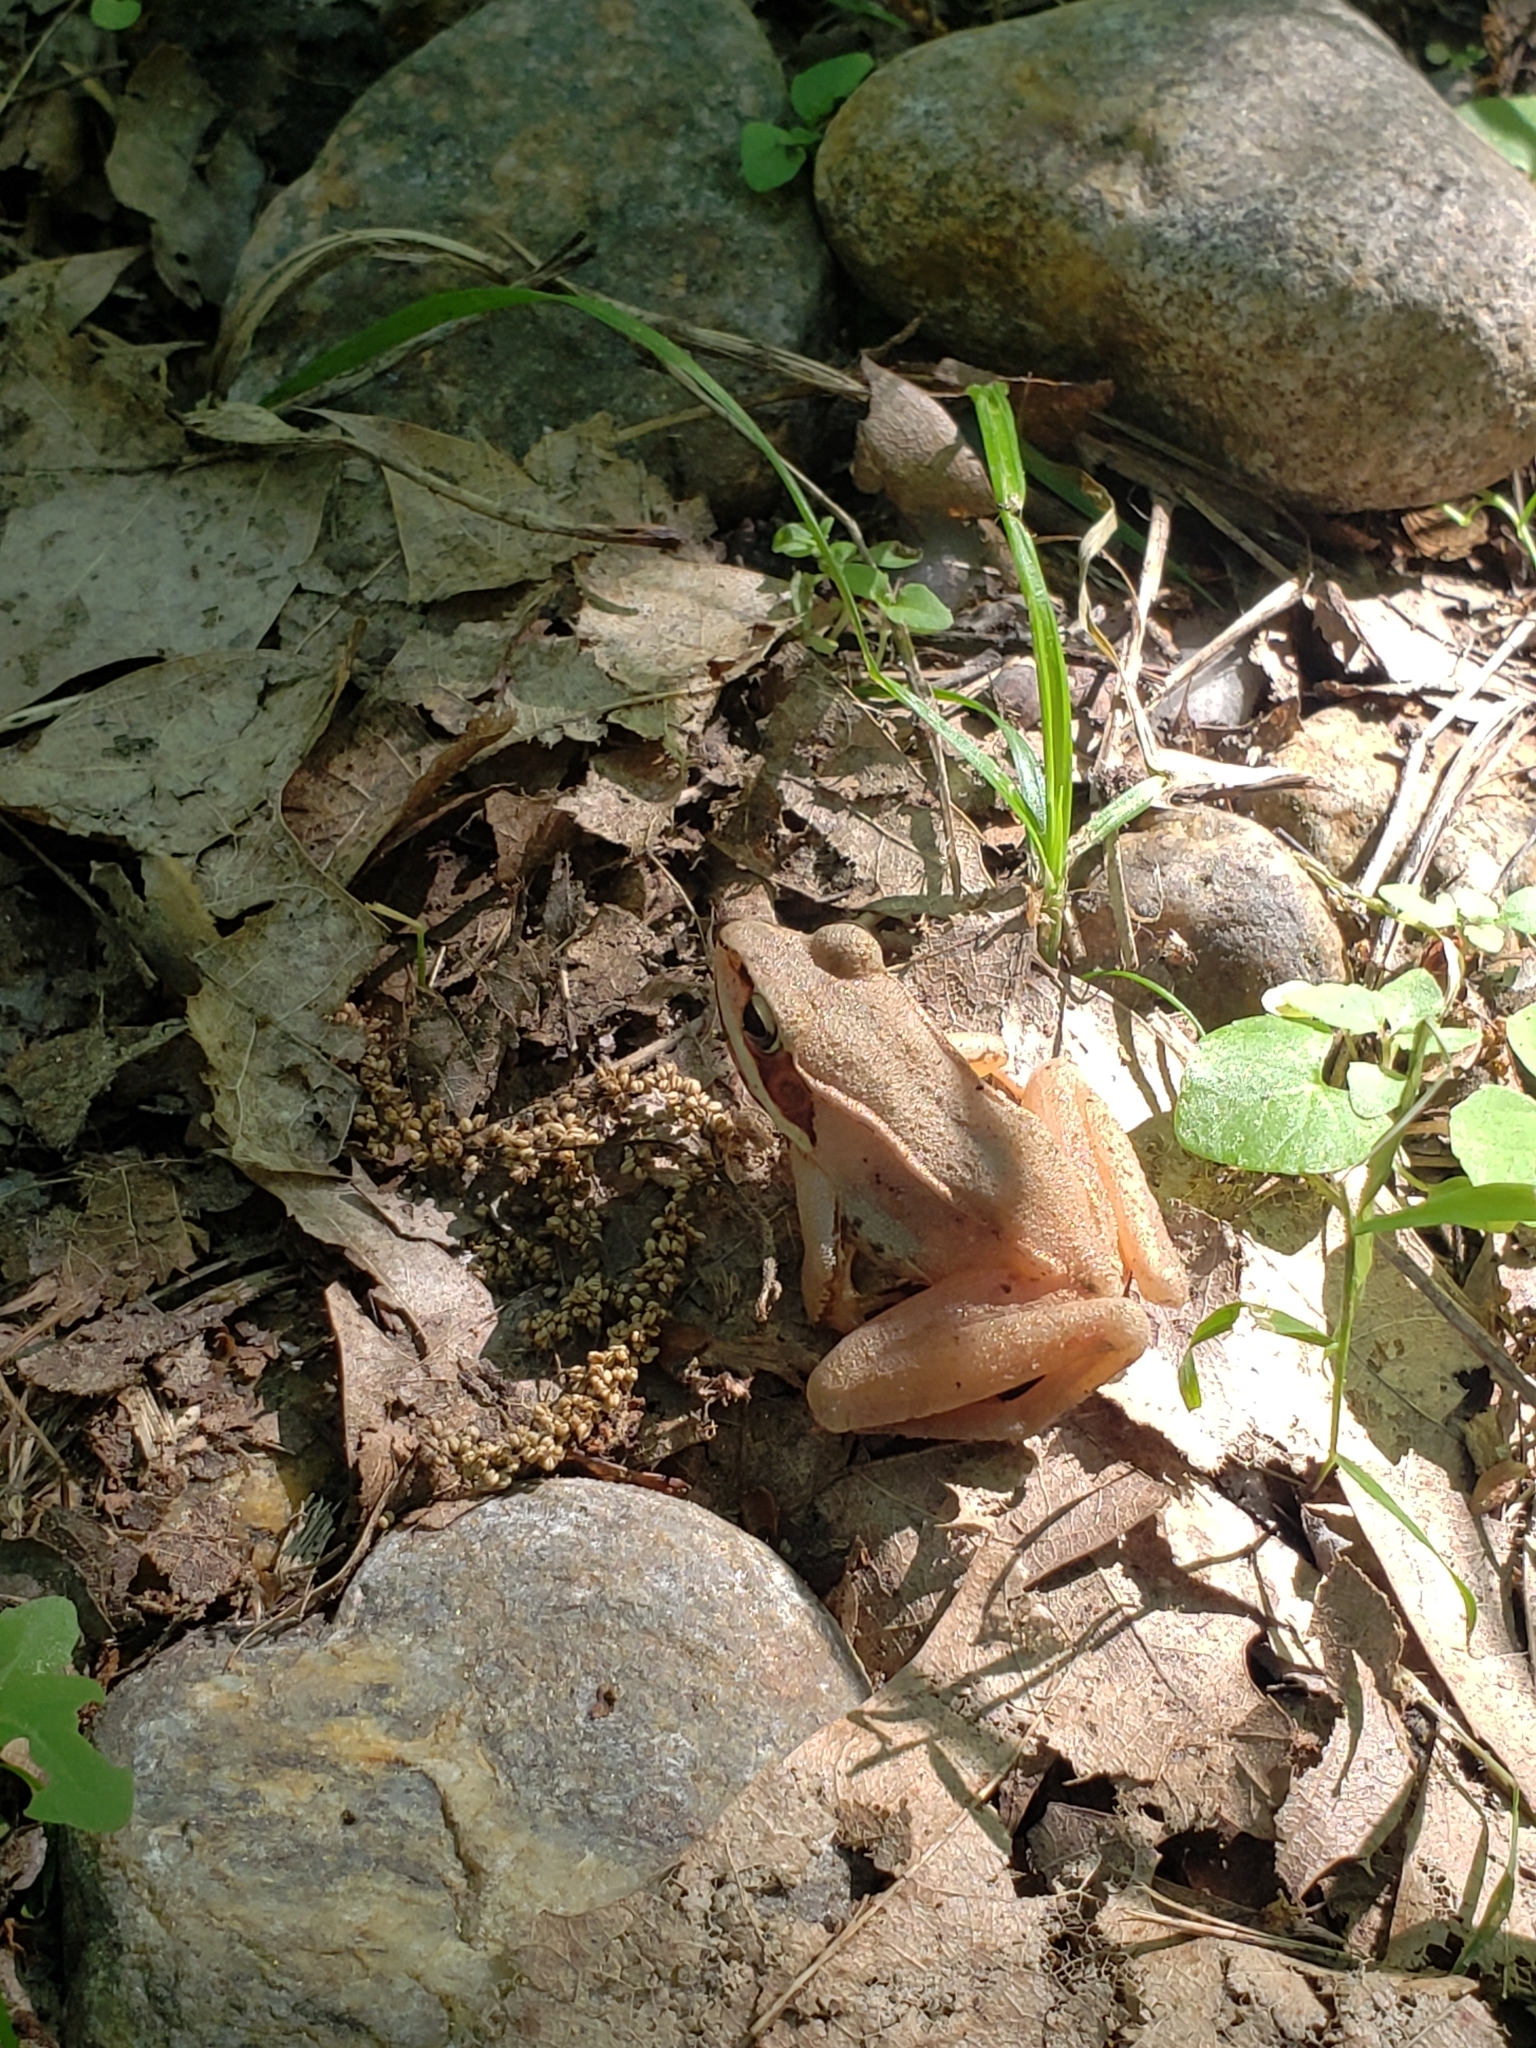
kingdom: Animalia
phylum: Chordata
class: Amphibia
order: Anura
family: Ranidae
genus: Lithobates
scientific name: Lithobates sylvaticus
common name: Wood frog
